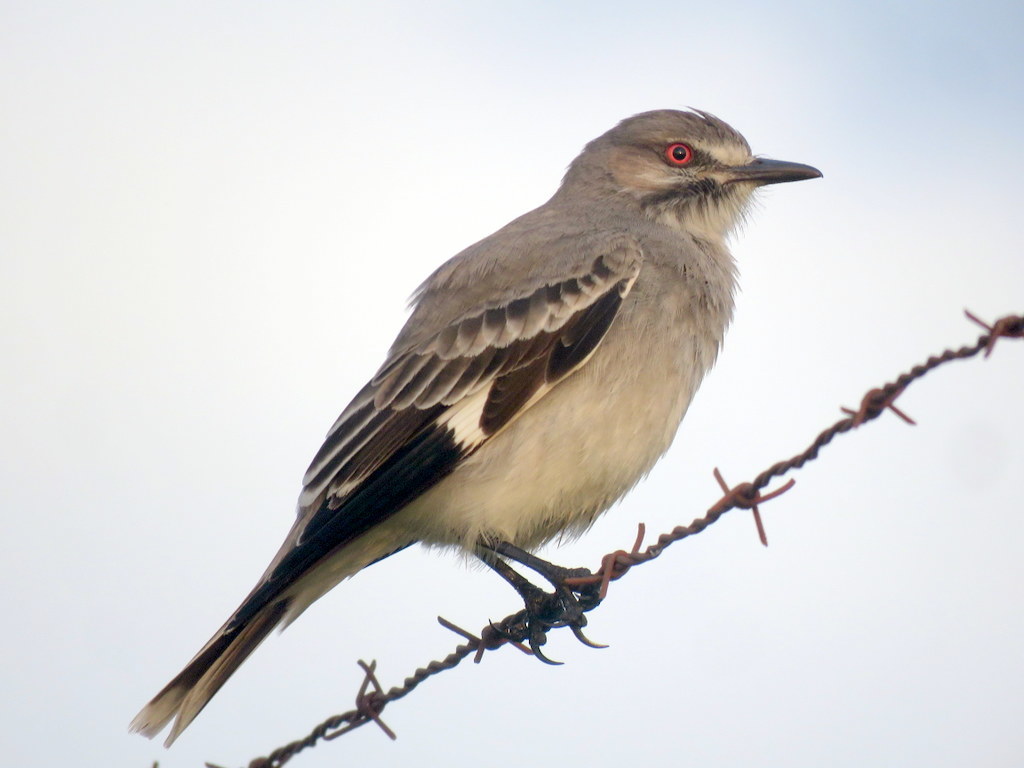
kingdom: Animalia
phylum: Chordata
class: Aves
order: Passeriformes
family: Tyrannidae
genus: Xolmis
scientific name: Xolmis cinereus
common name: Grey monjita
